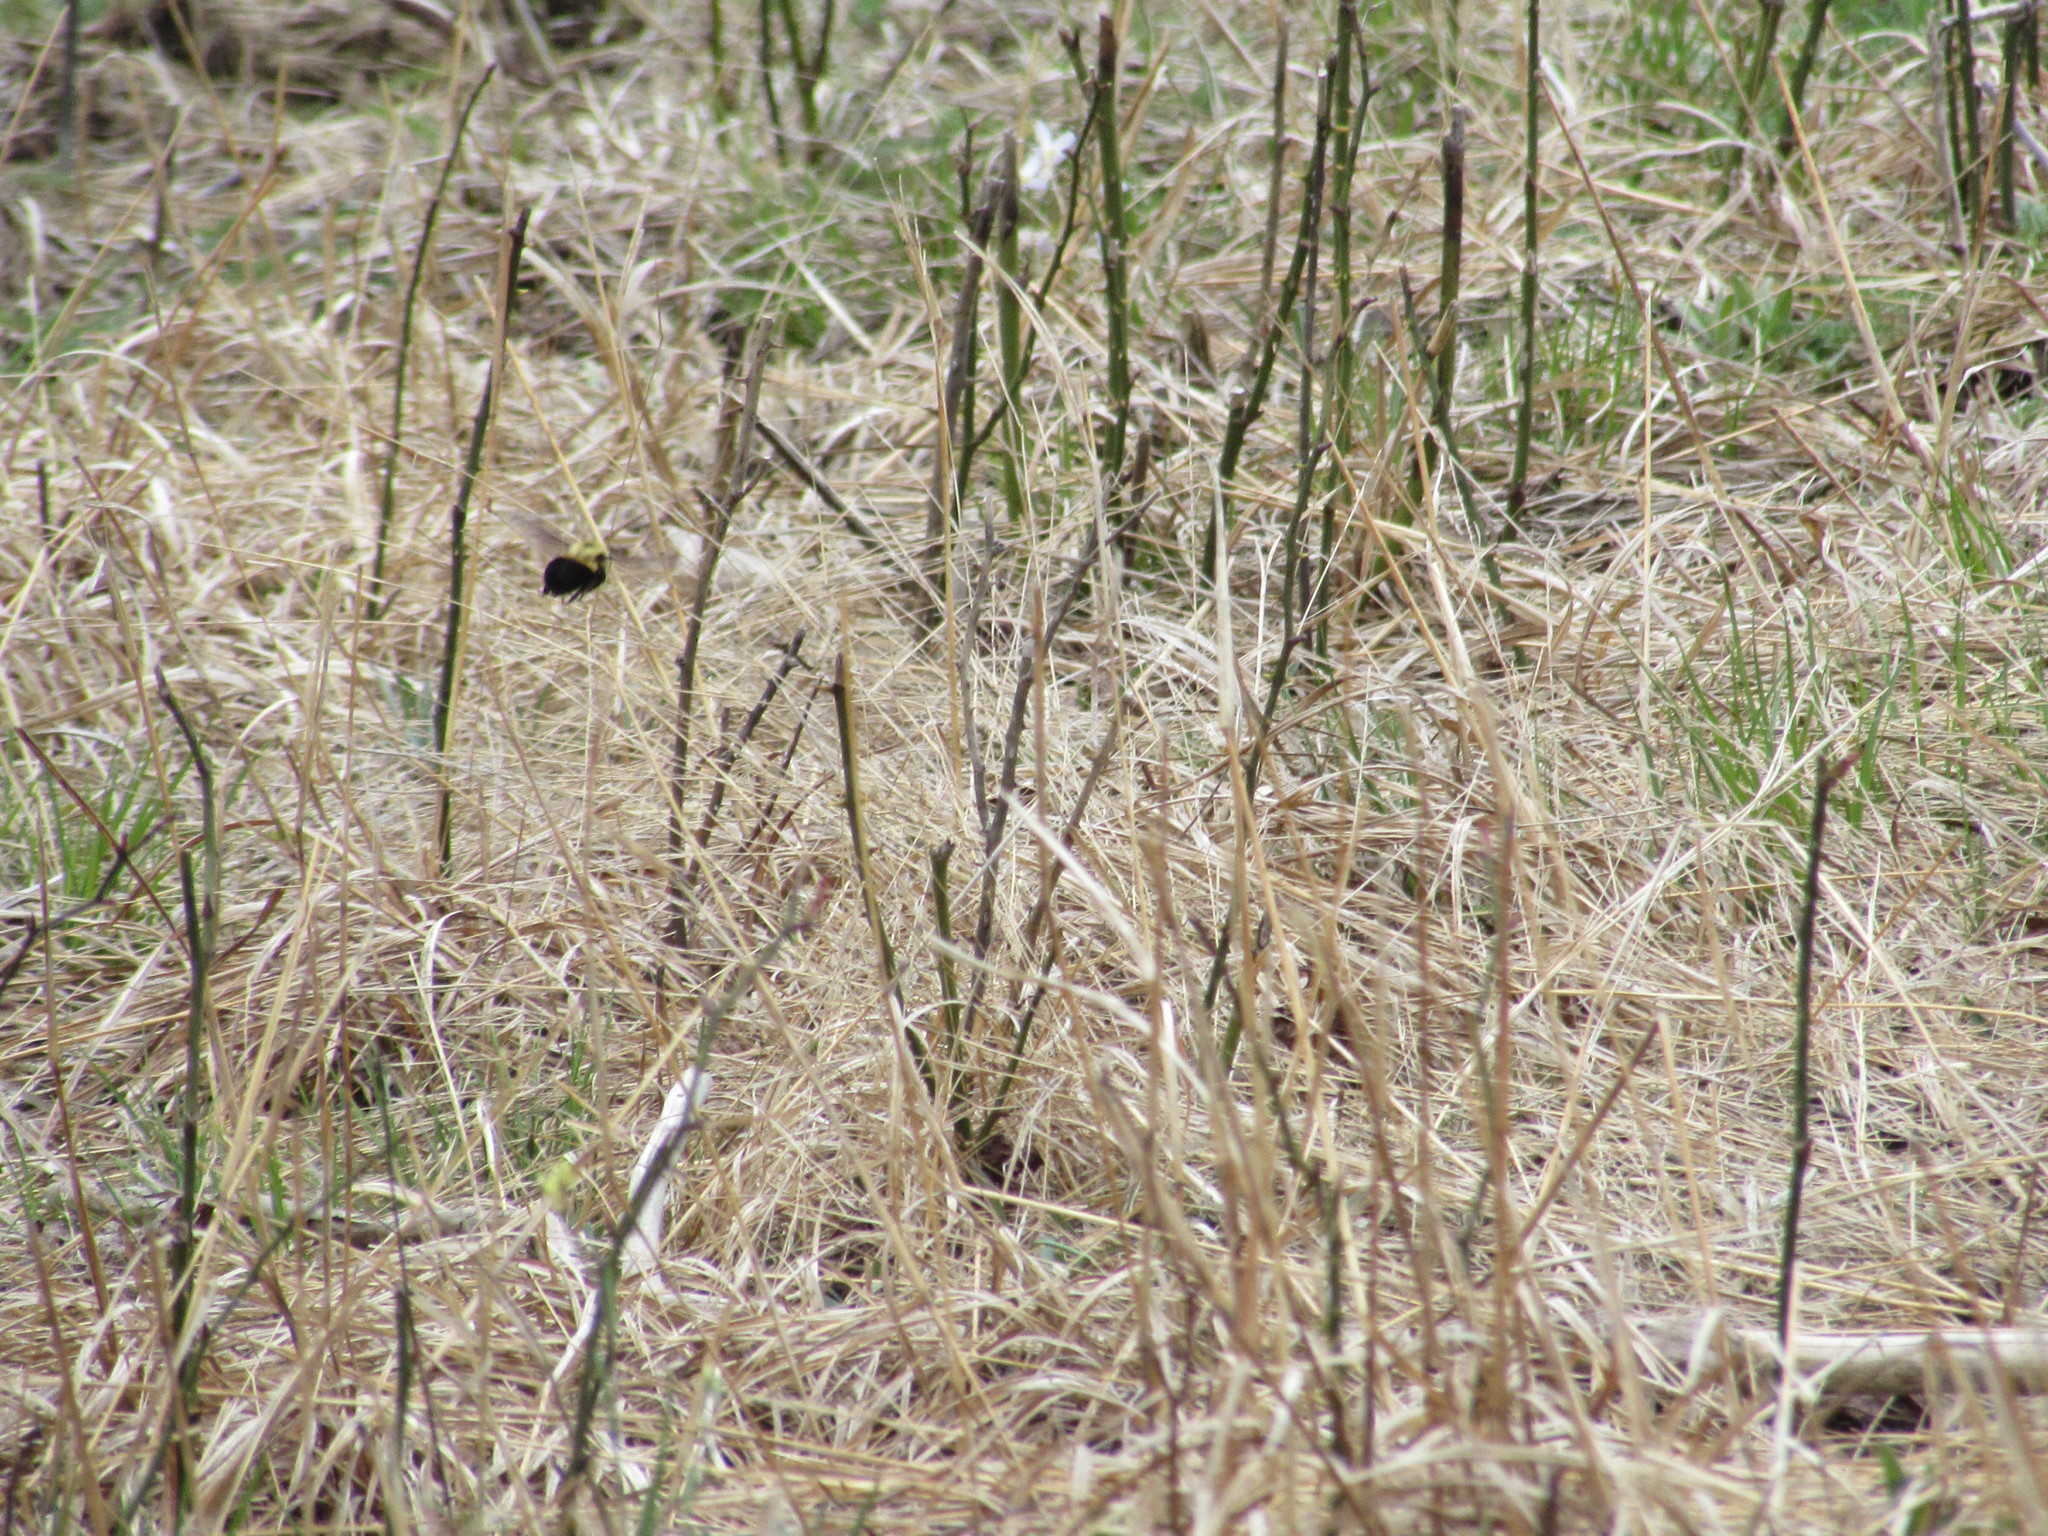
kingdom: Animalia
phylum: Arthropoda
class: Insecta
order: Hymenoptera
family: Apidae
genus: Bombus
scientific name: Bombus
